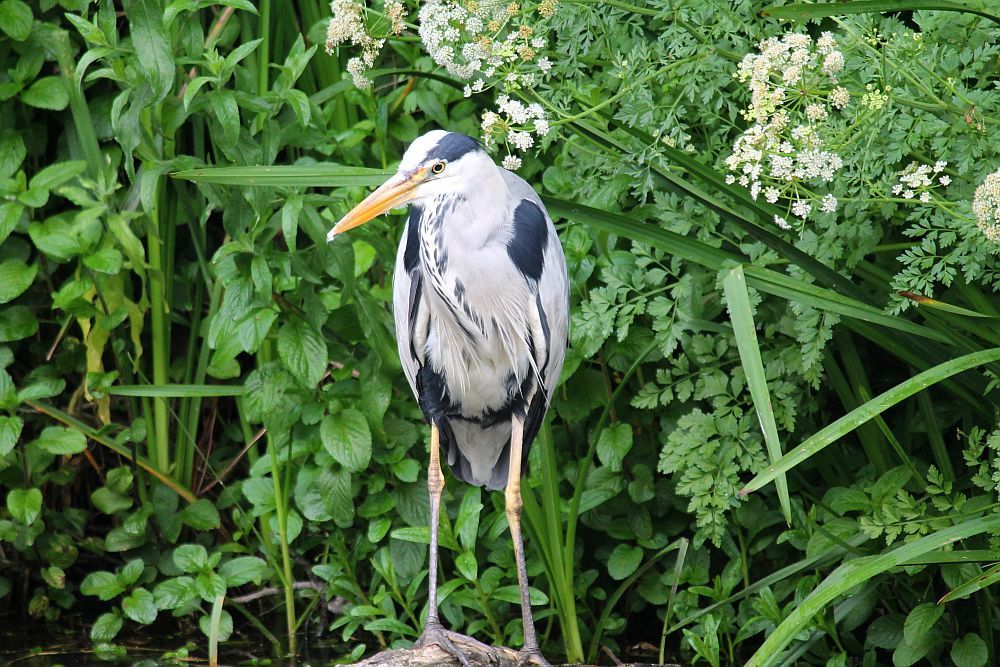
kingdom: Animalia
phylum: Chordata
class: Aves
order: Pelecaniformes
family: Ardeidae
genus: Ardea
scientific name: Ardea cinerea
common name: Grey heron
